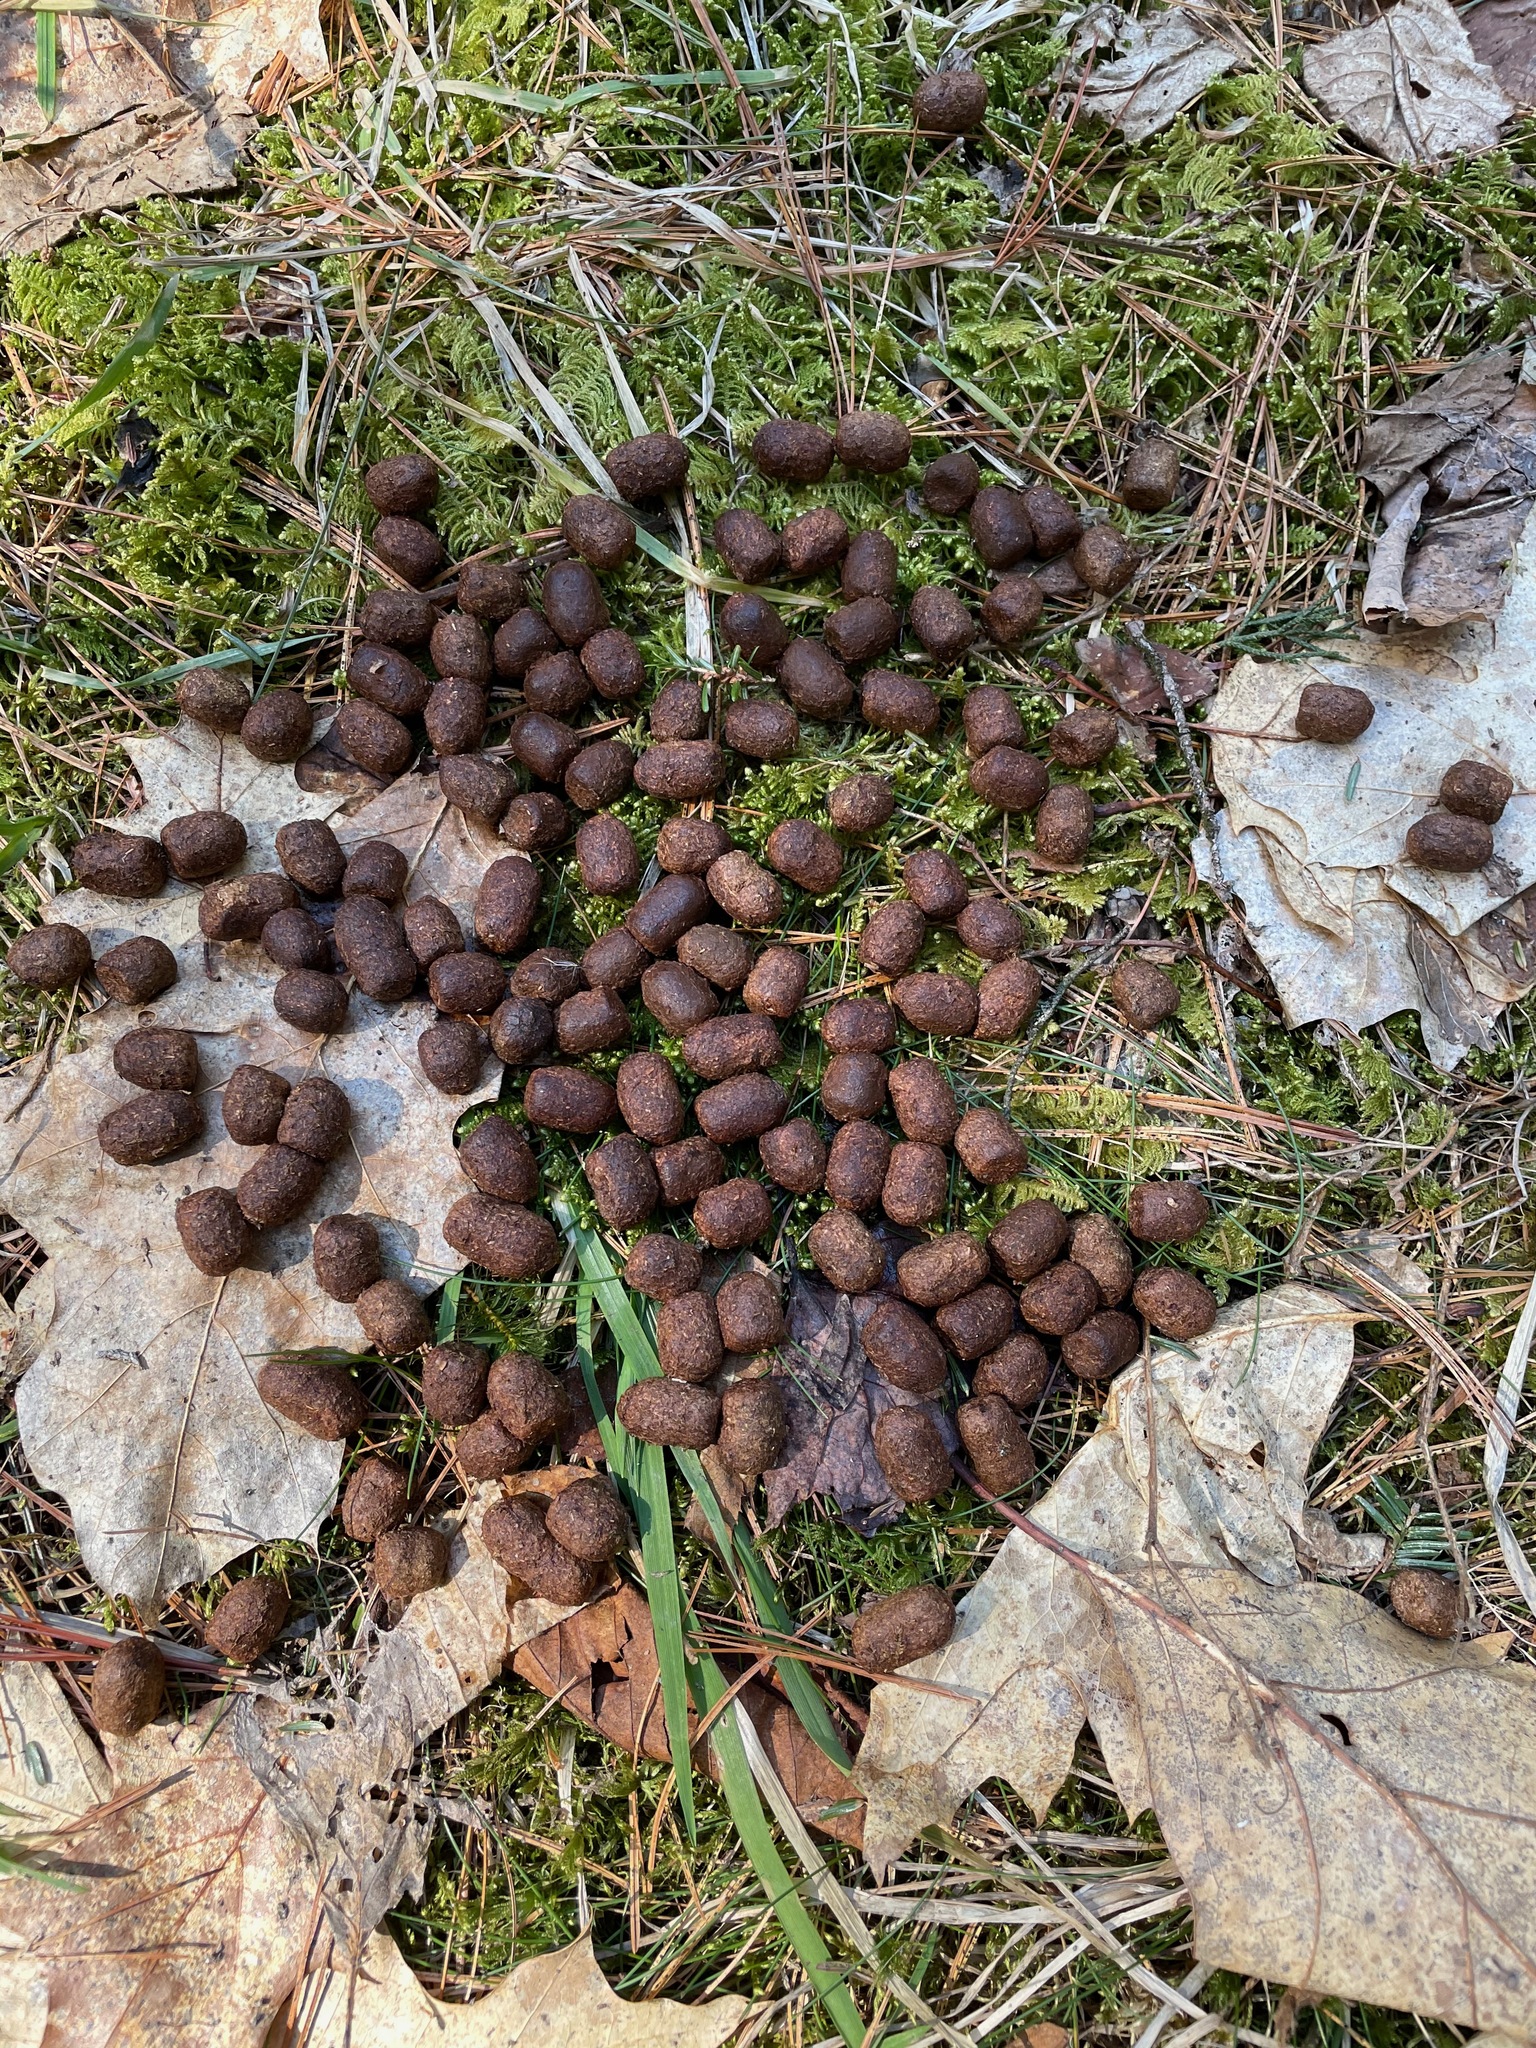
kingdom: Animalia
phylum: Chordata
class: Mammalia
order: Artiodactyla
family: Cervidae
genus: Odocoileus
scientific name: Odocoileus virginianus
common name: White-tailed deer
